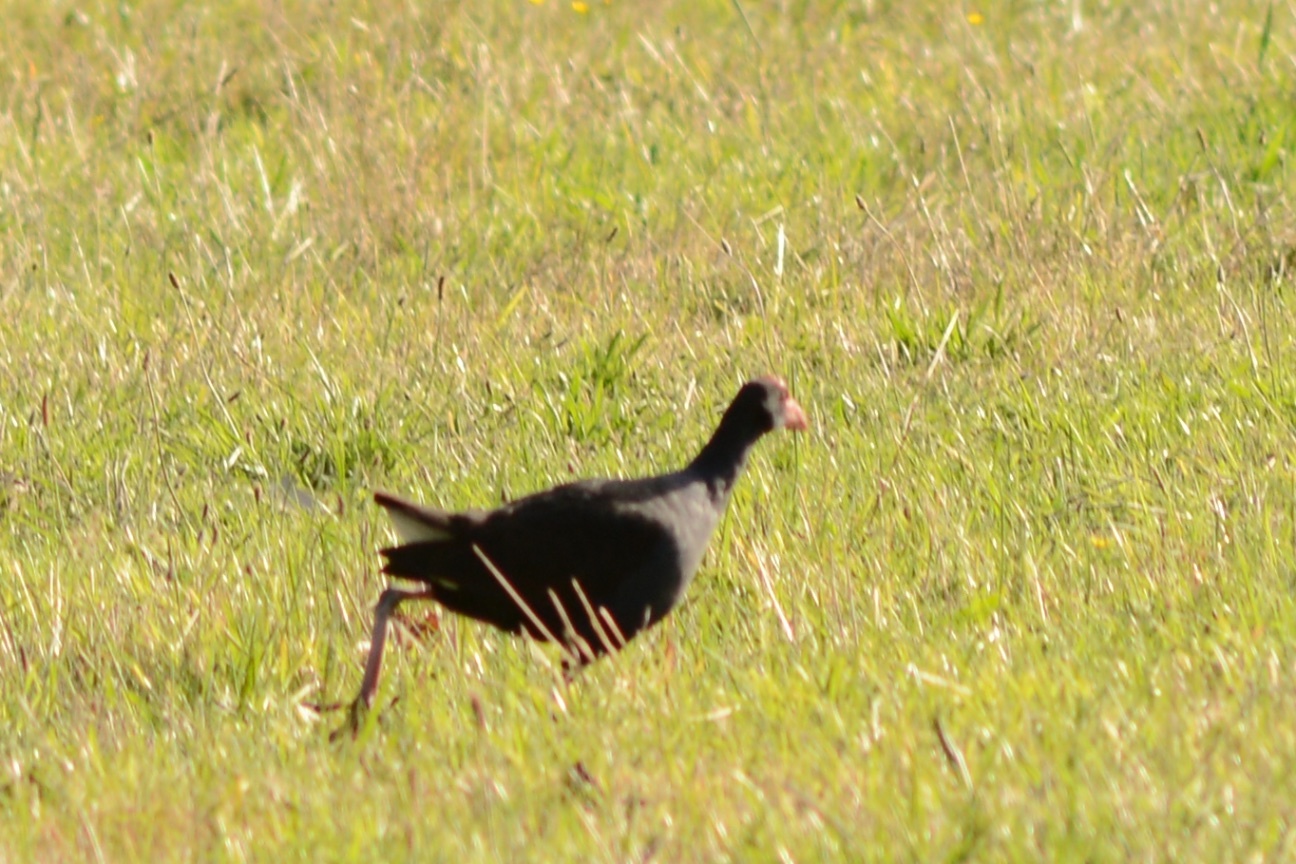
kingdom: Animalia
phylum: Chordata
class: Aves
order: Gruiformes
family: Rallidae
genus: Porphyrio
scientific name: Porphyrio melanotus
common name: Australasian swamphen
